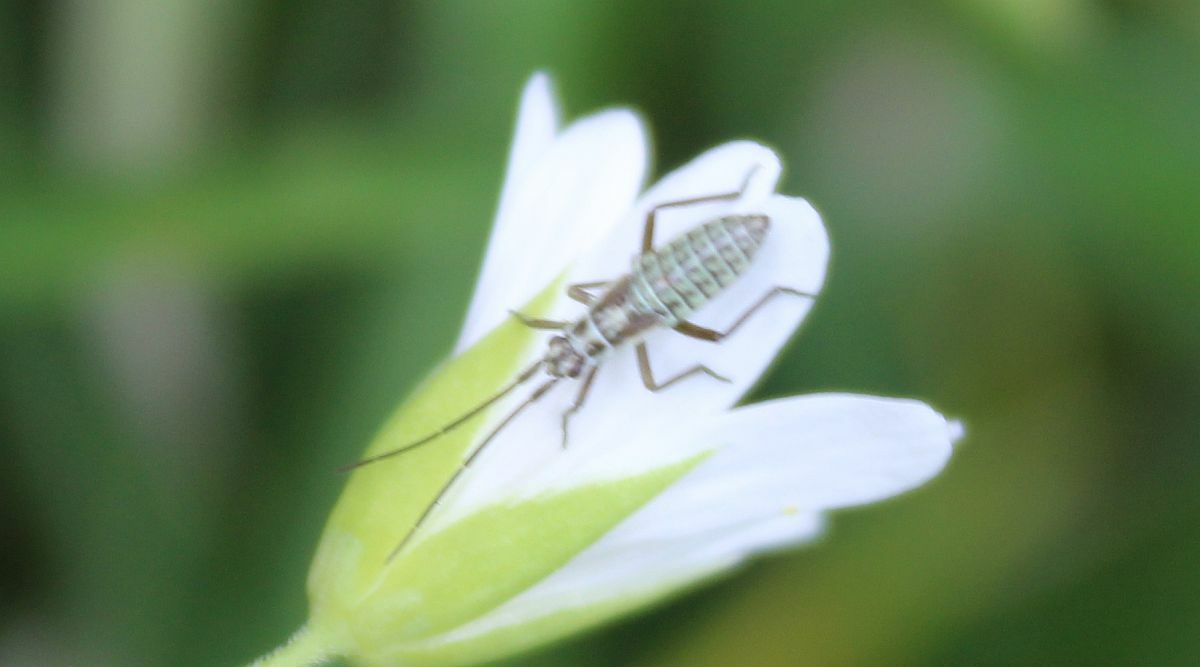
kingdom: Animalia
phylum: Arthropoda
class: Insecta
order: Hemiptera
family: Miridae
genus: Leptopterna
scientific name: Leptopterna dolabrata
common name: Meadow plant bug
